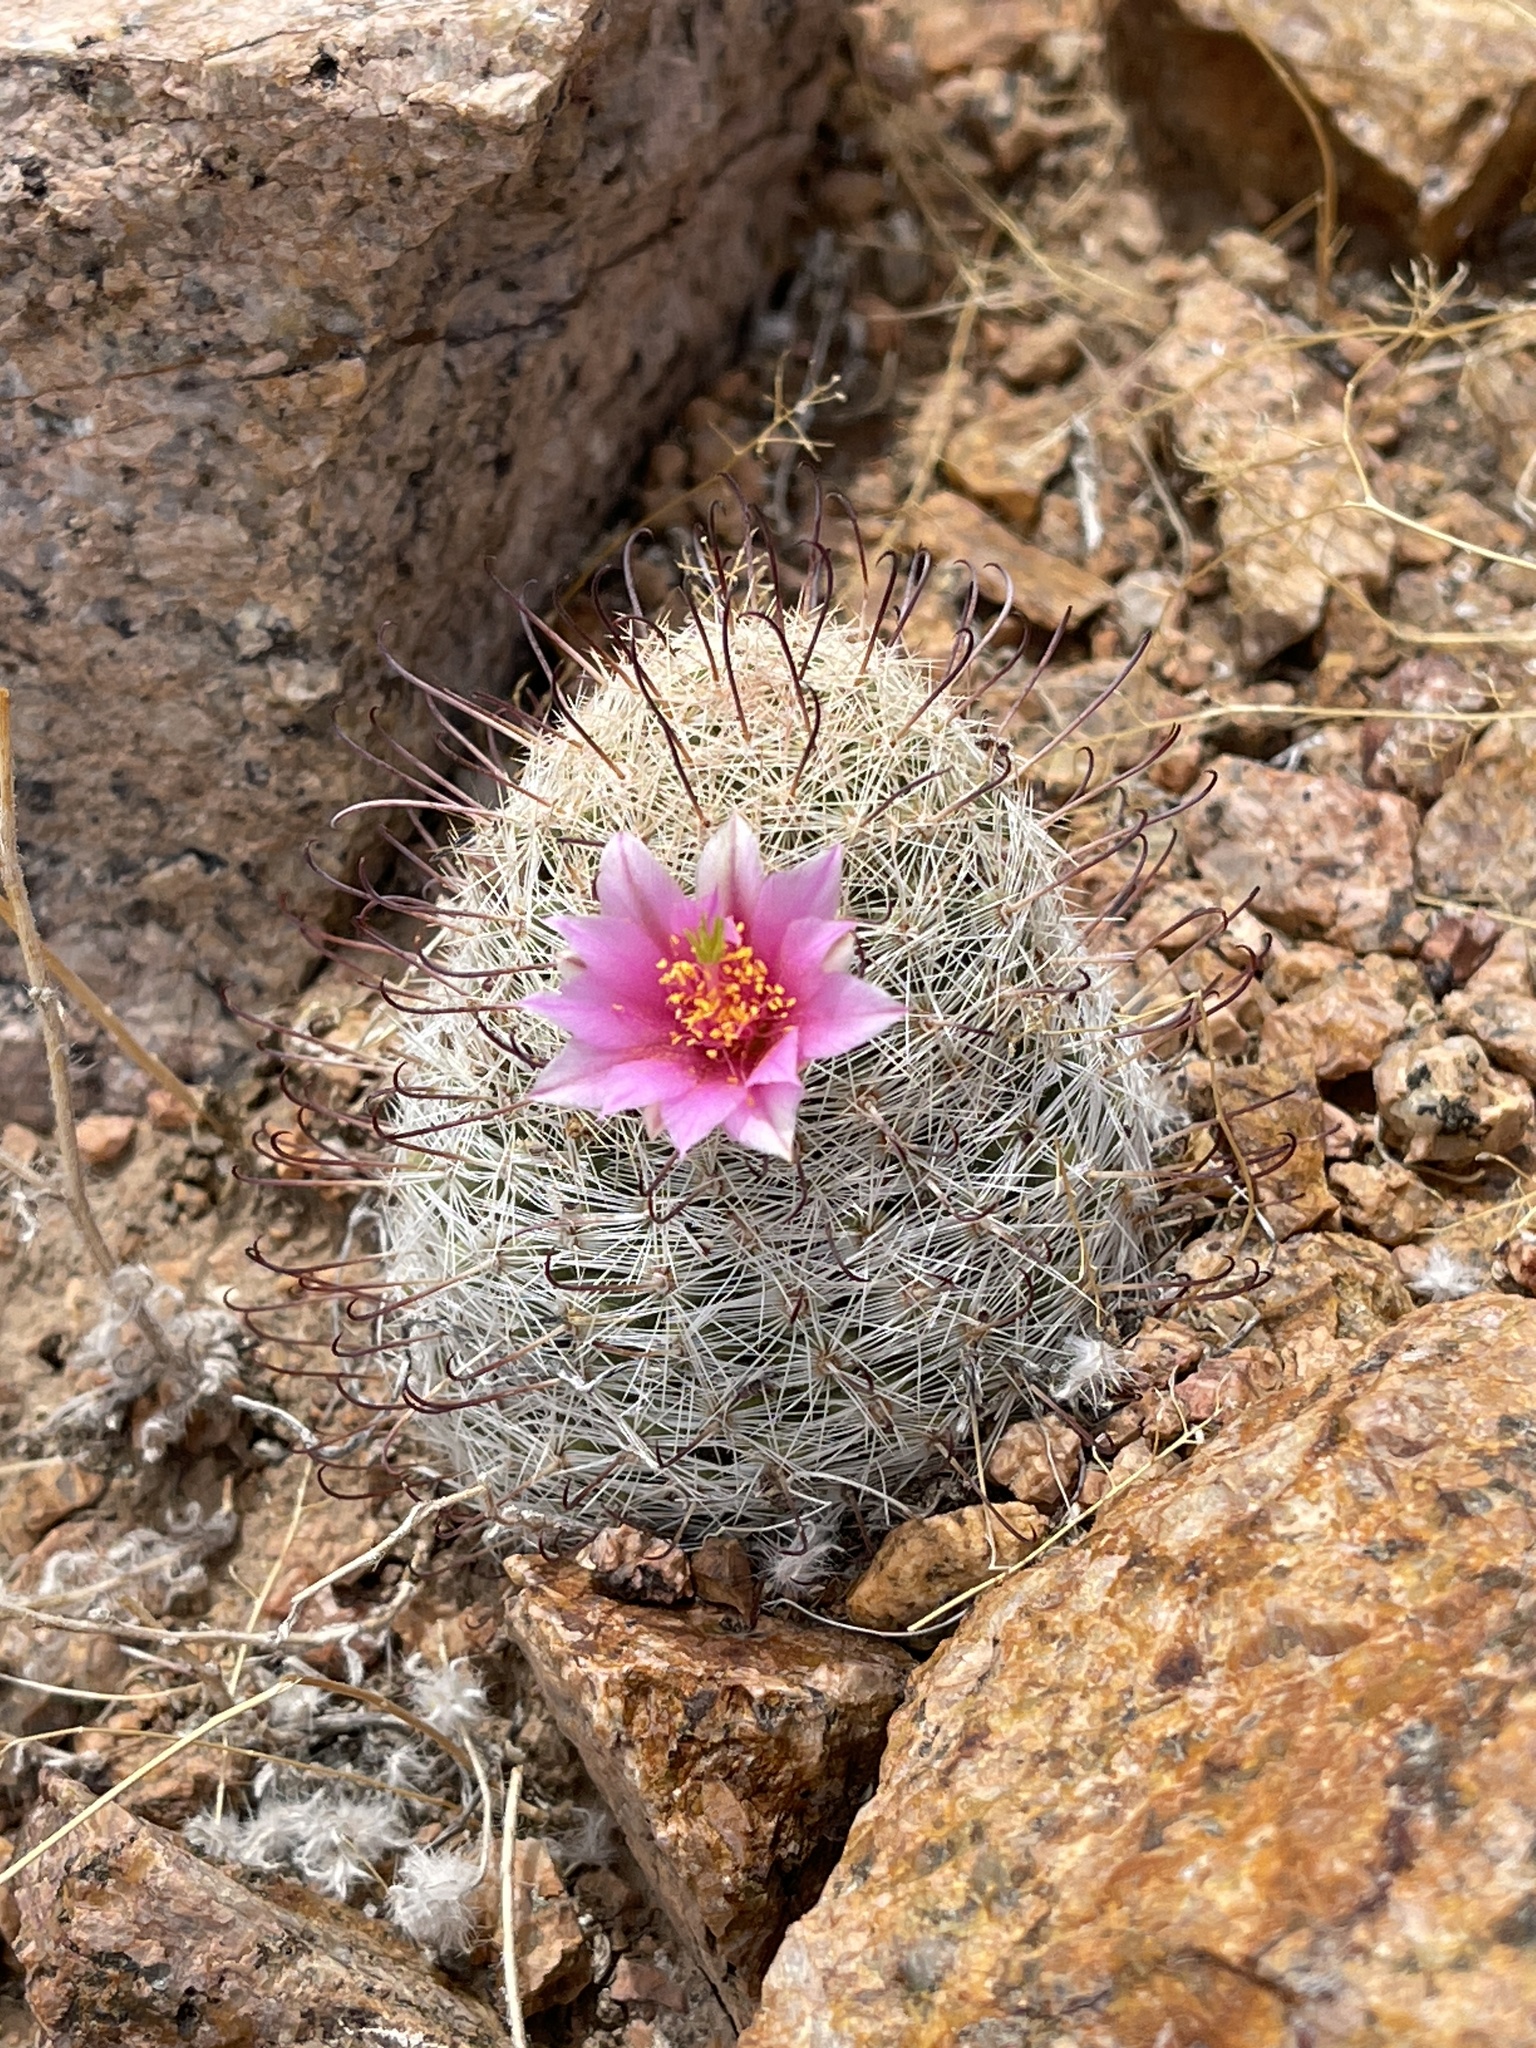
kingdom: Plantae
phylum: Tracheophyta
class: Magnoliopsida
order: Caryophyllales
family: Cactaceae
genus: Cochemiea
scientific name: Cochemiea grahamii
